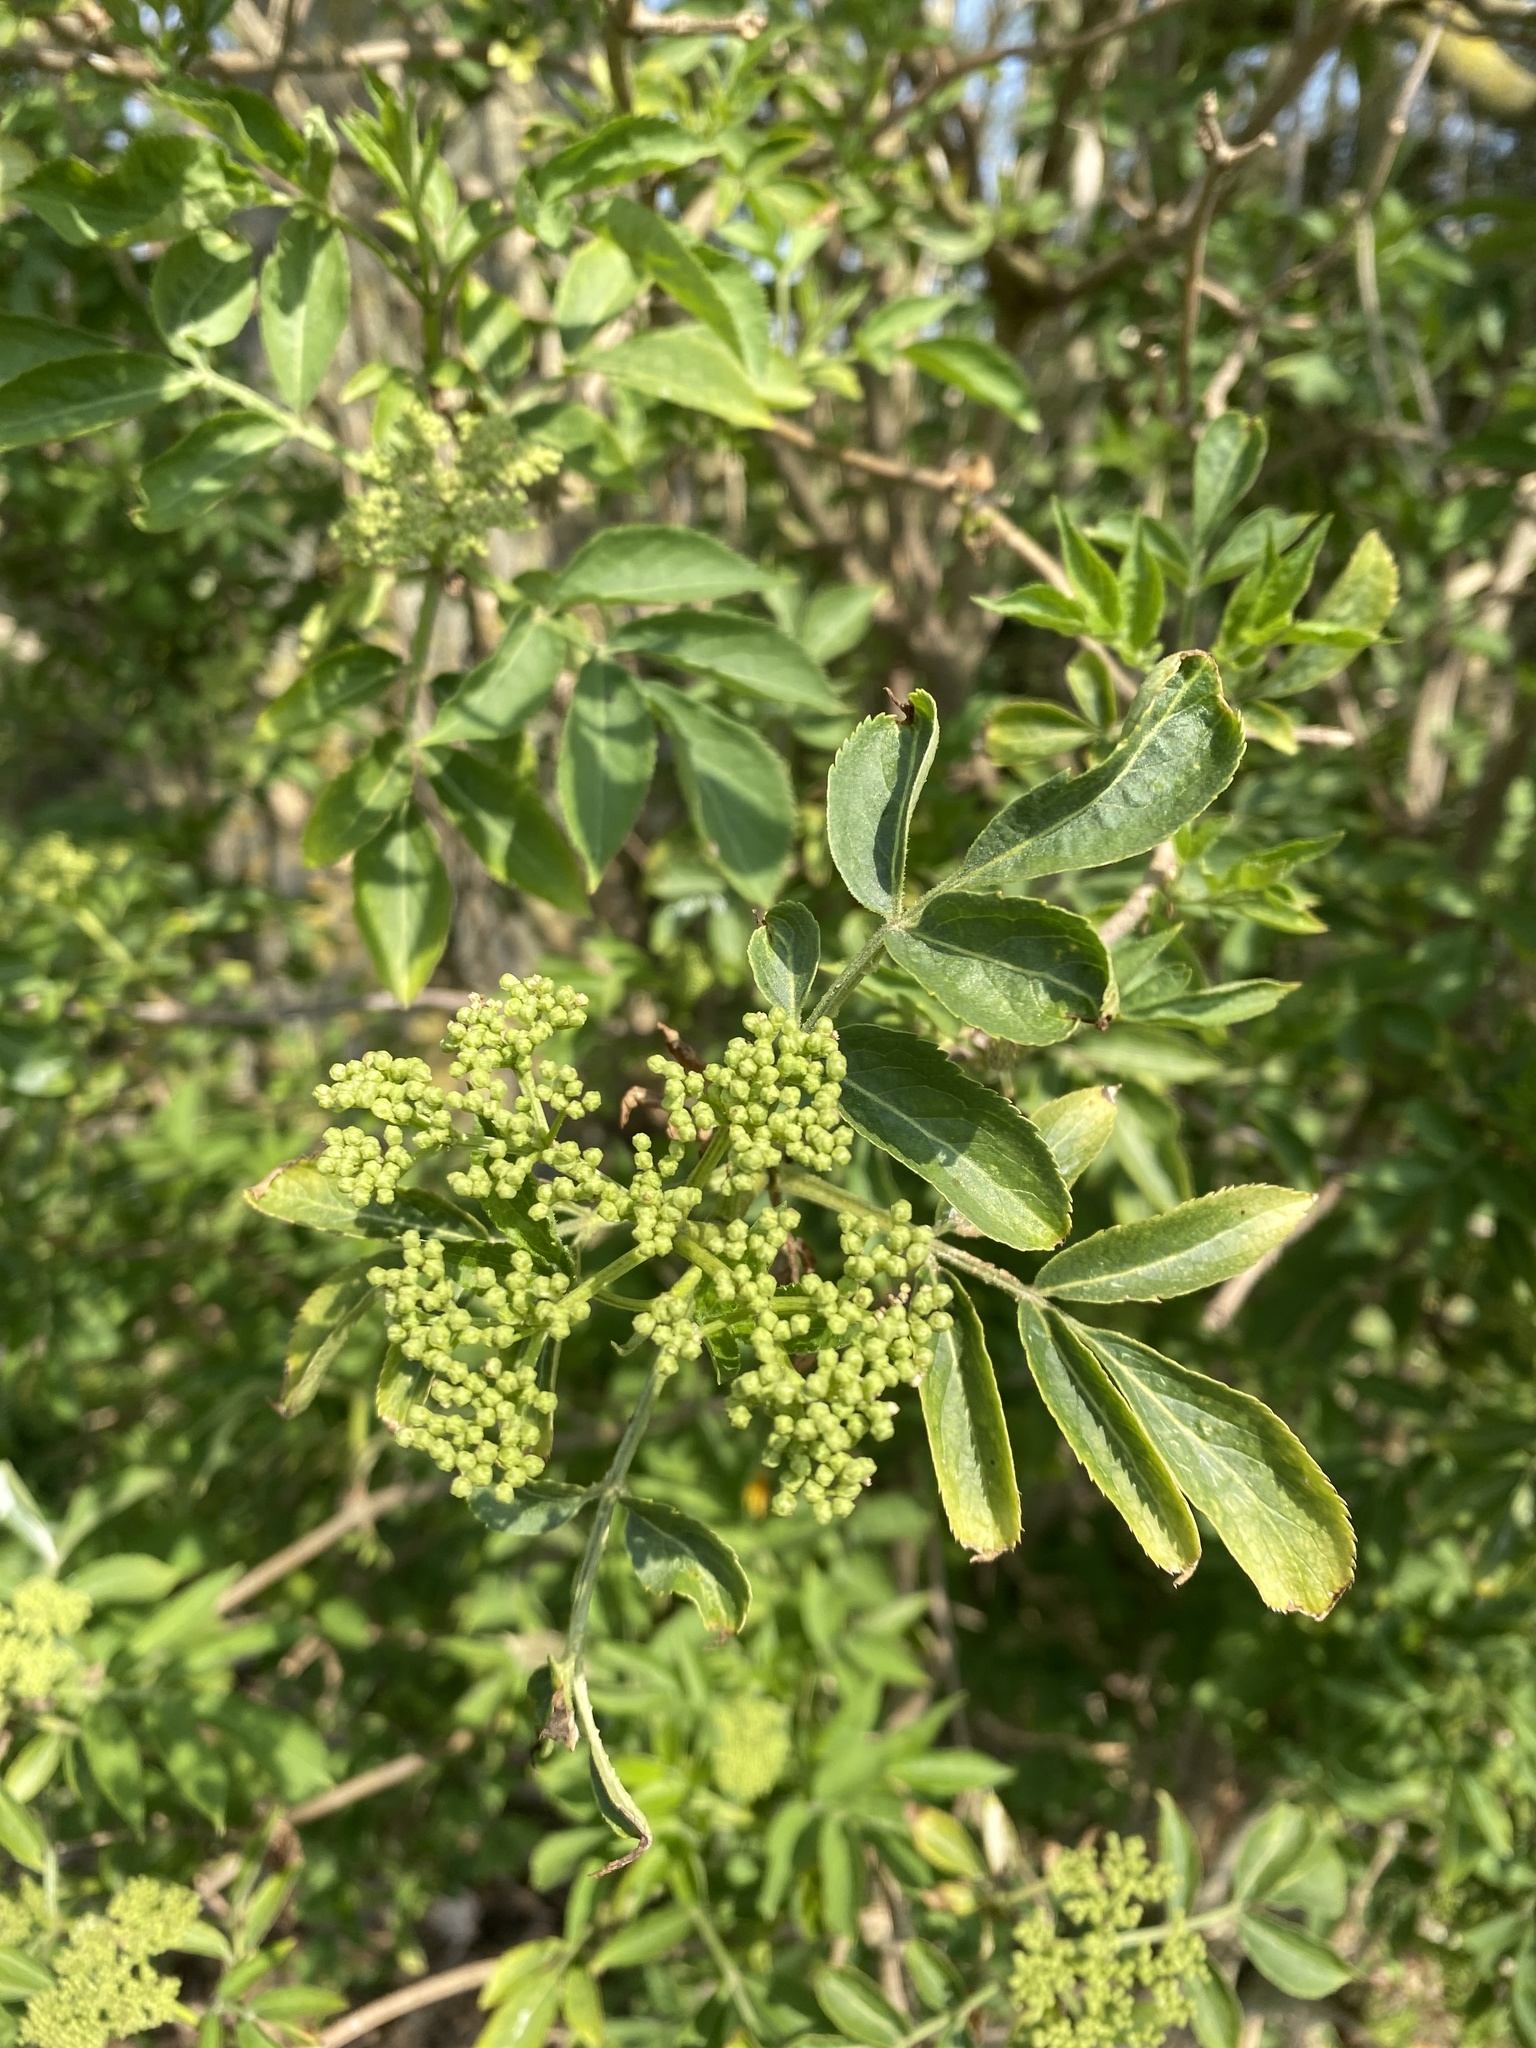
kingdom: Plantae
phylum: Tracheophyta
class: Magnoliopsida
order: Dipsacales
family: Viburnaceae
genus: Sambucus
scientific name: Sambucus nigra
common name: Elder
